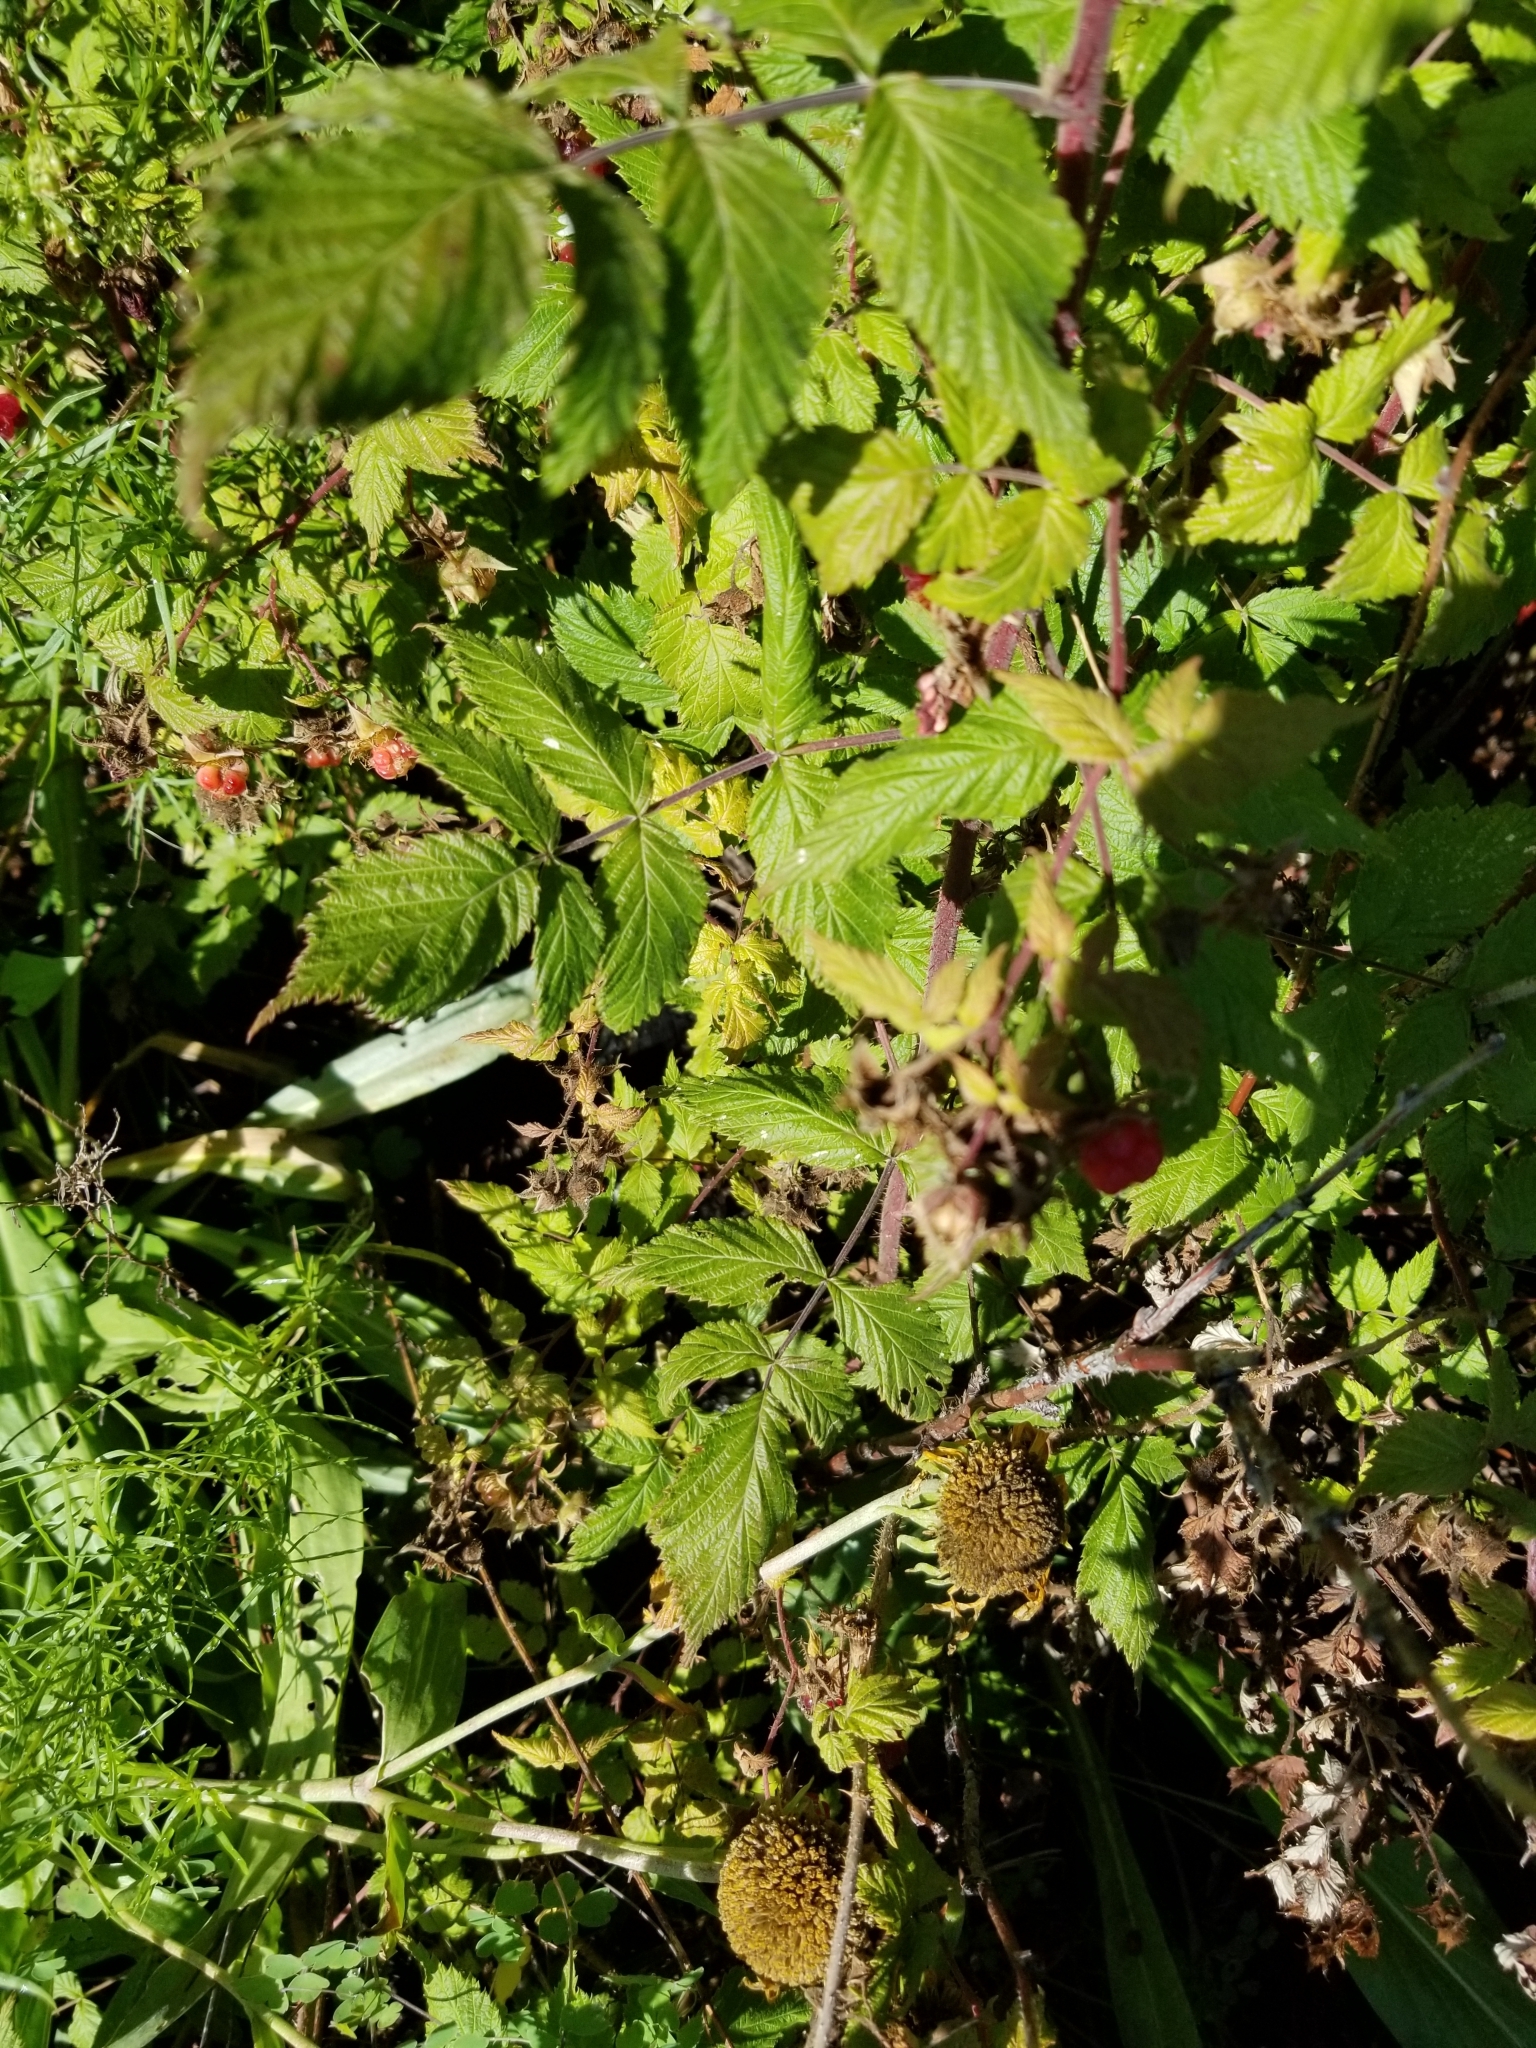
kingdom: Plantae
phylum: Tracheophyta
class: Magnoliopsida
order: Rosales
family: Rosaceae
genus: Rubus
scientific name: Rubus idaeus
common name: Raspberry
